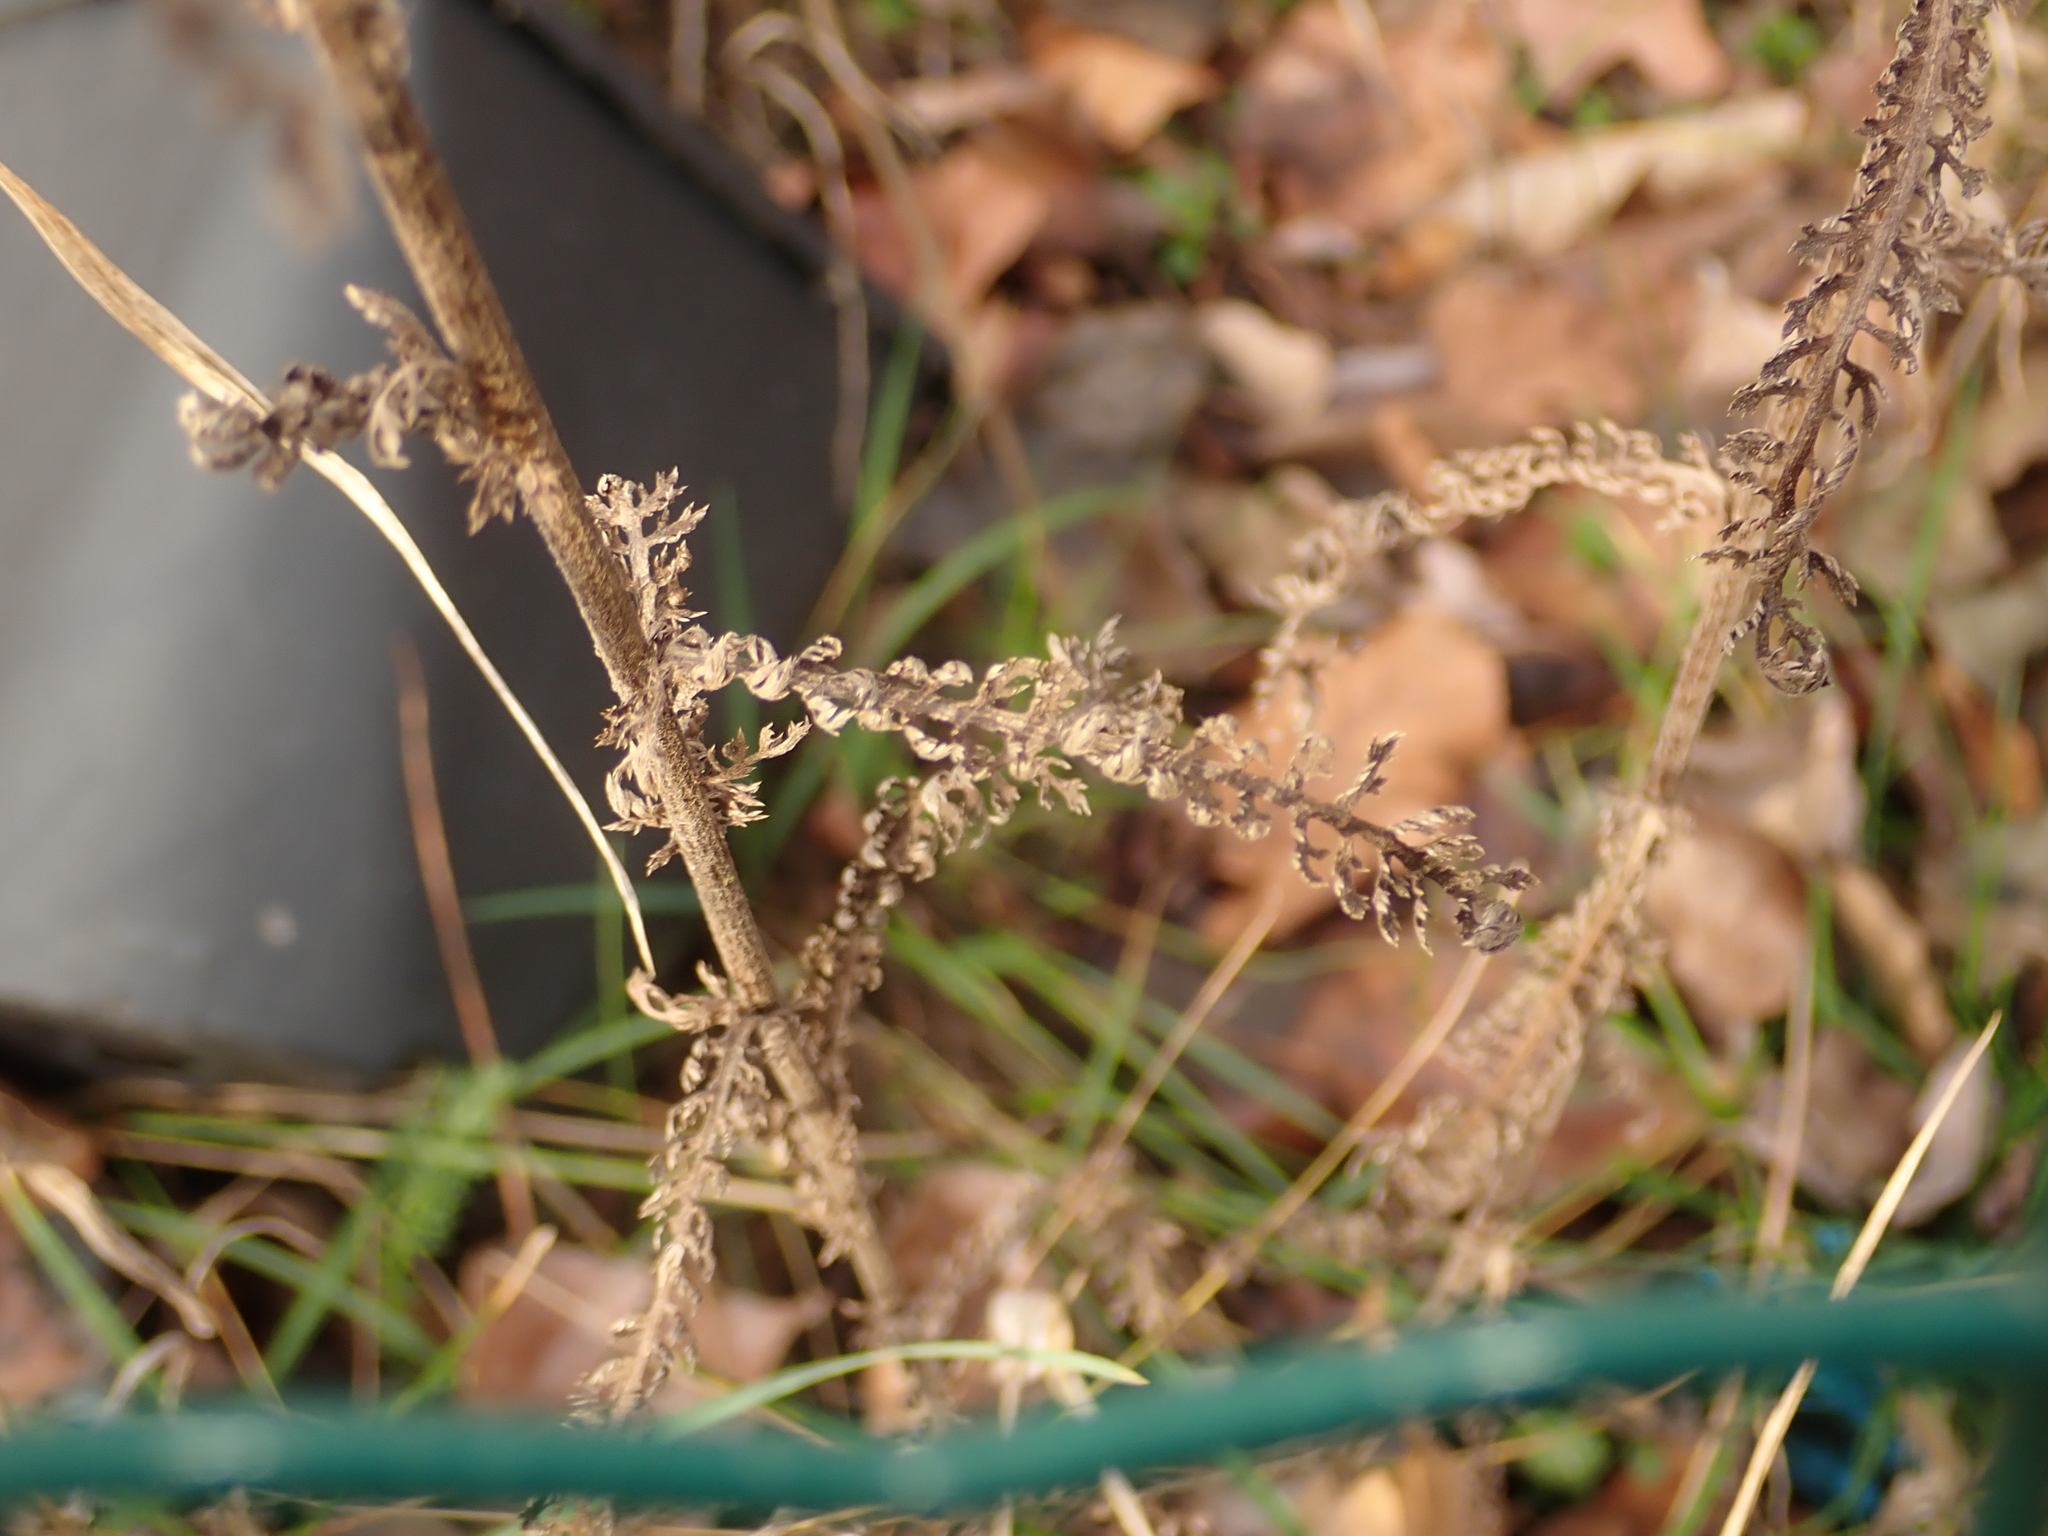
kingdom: Plantae
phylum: Tracheophyta
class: Magnoliopsida
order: Asterales
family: Asteraceae
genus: Achillea
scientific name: Achillea millefolium
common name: Yarrow
